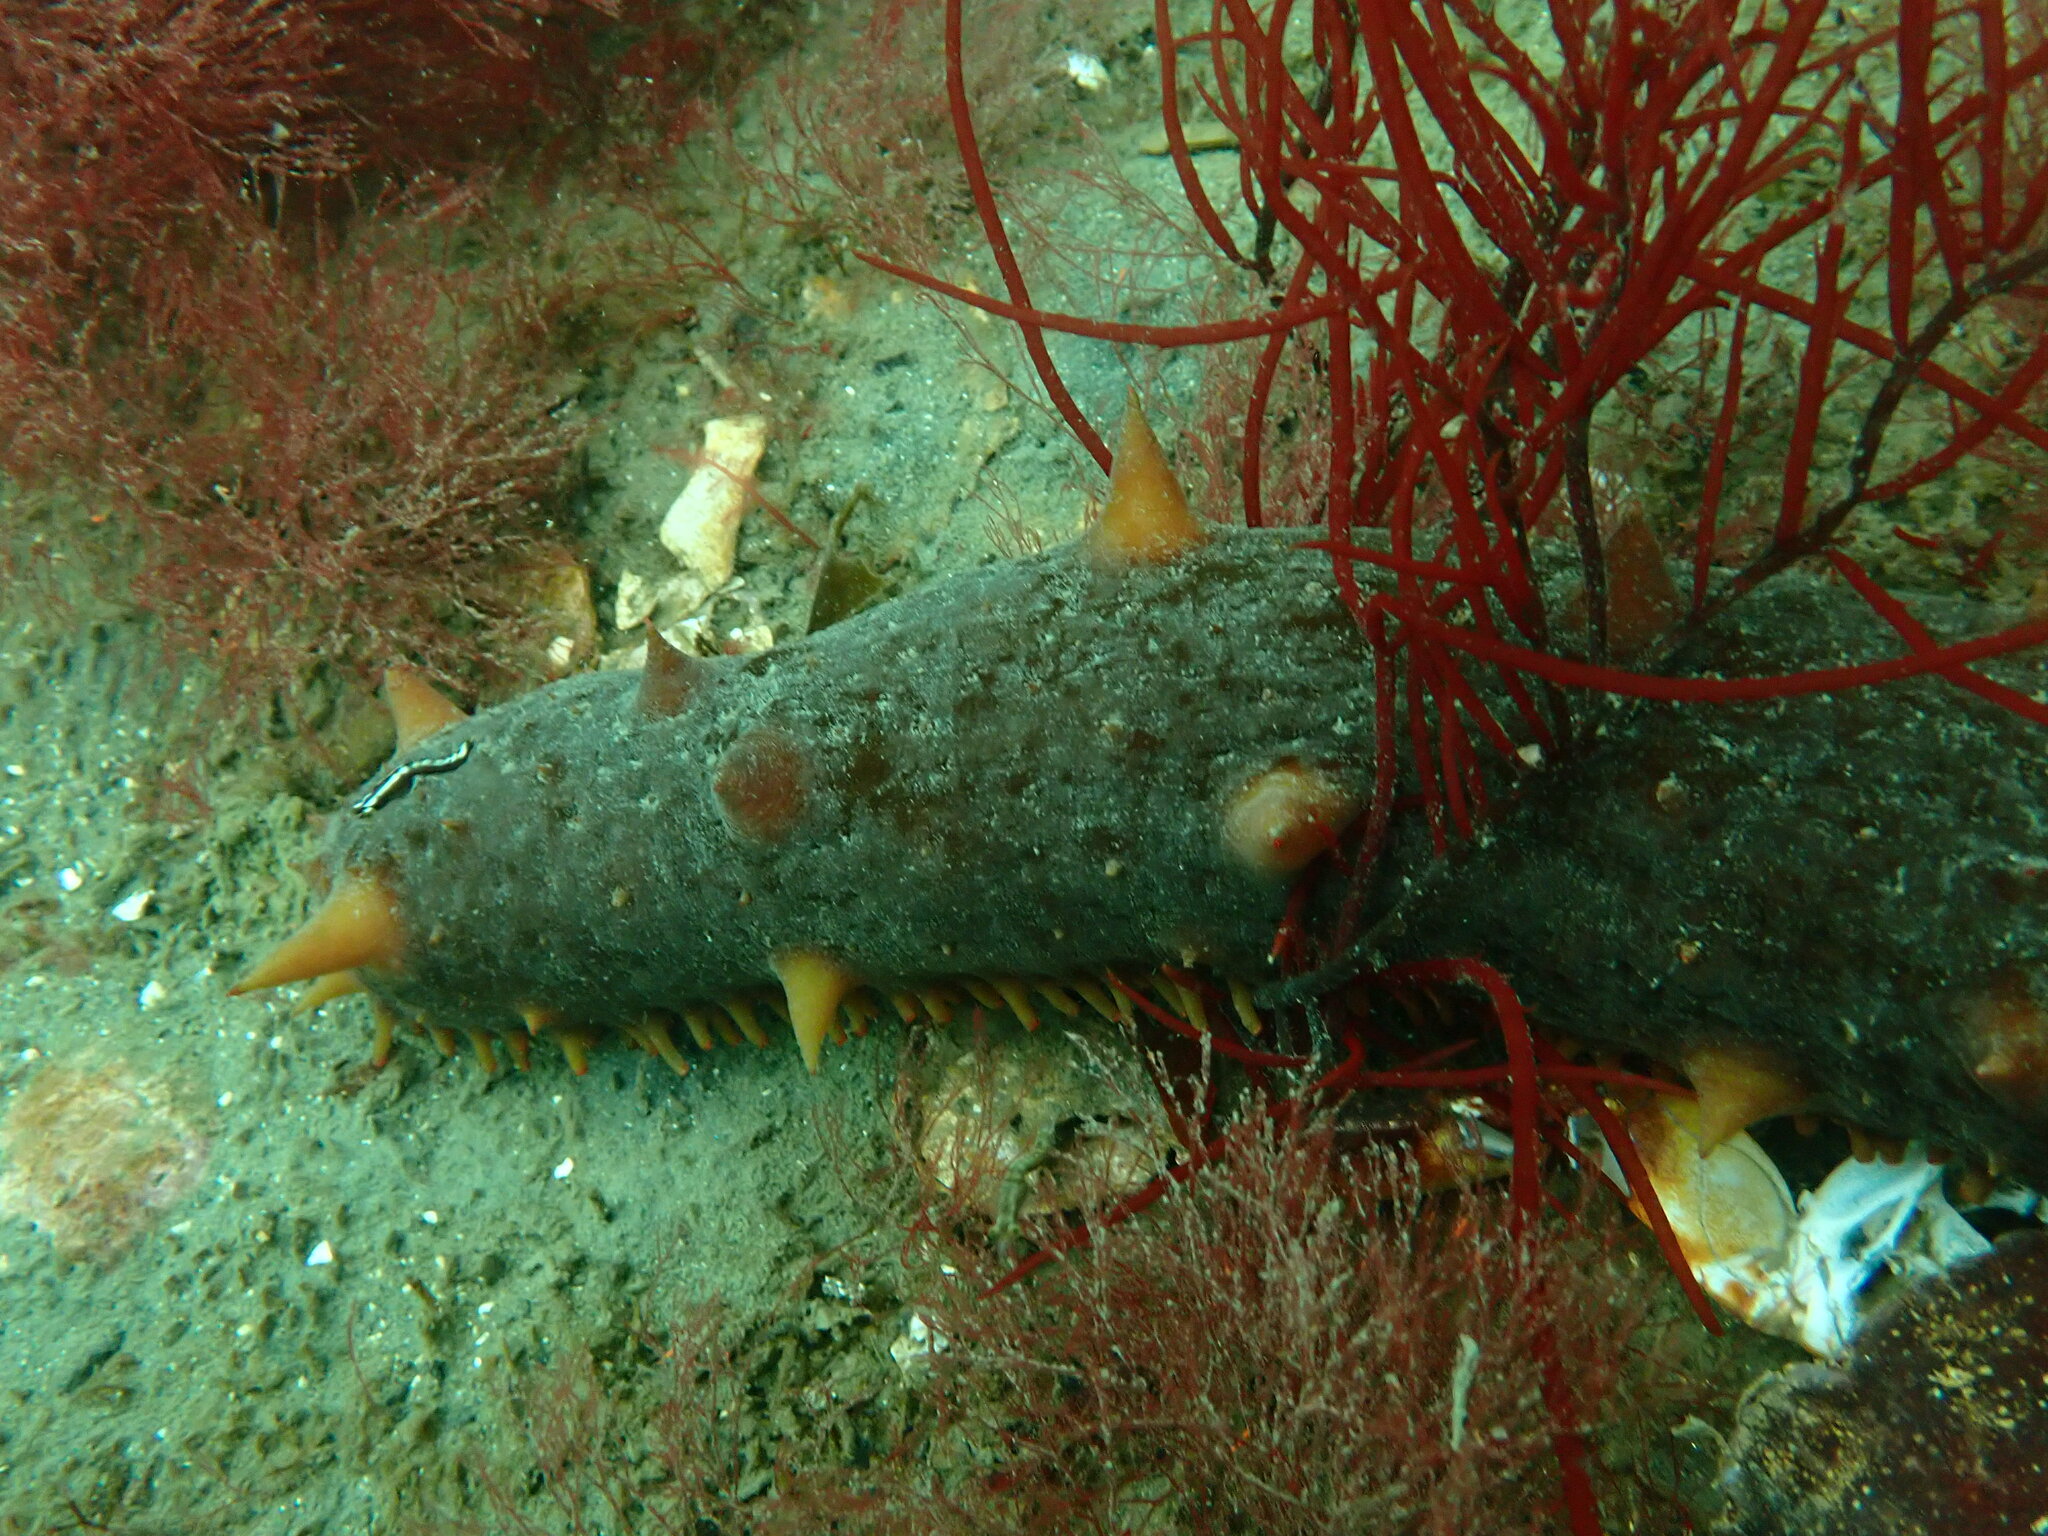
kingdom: Animalia
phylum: Echinodermata
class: Holothuroidea
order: Synallactida
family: Stichopodidae
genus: Apostichopus
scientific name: Apostichopus californicus
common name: California sea cucumber
